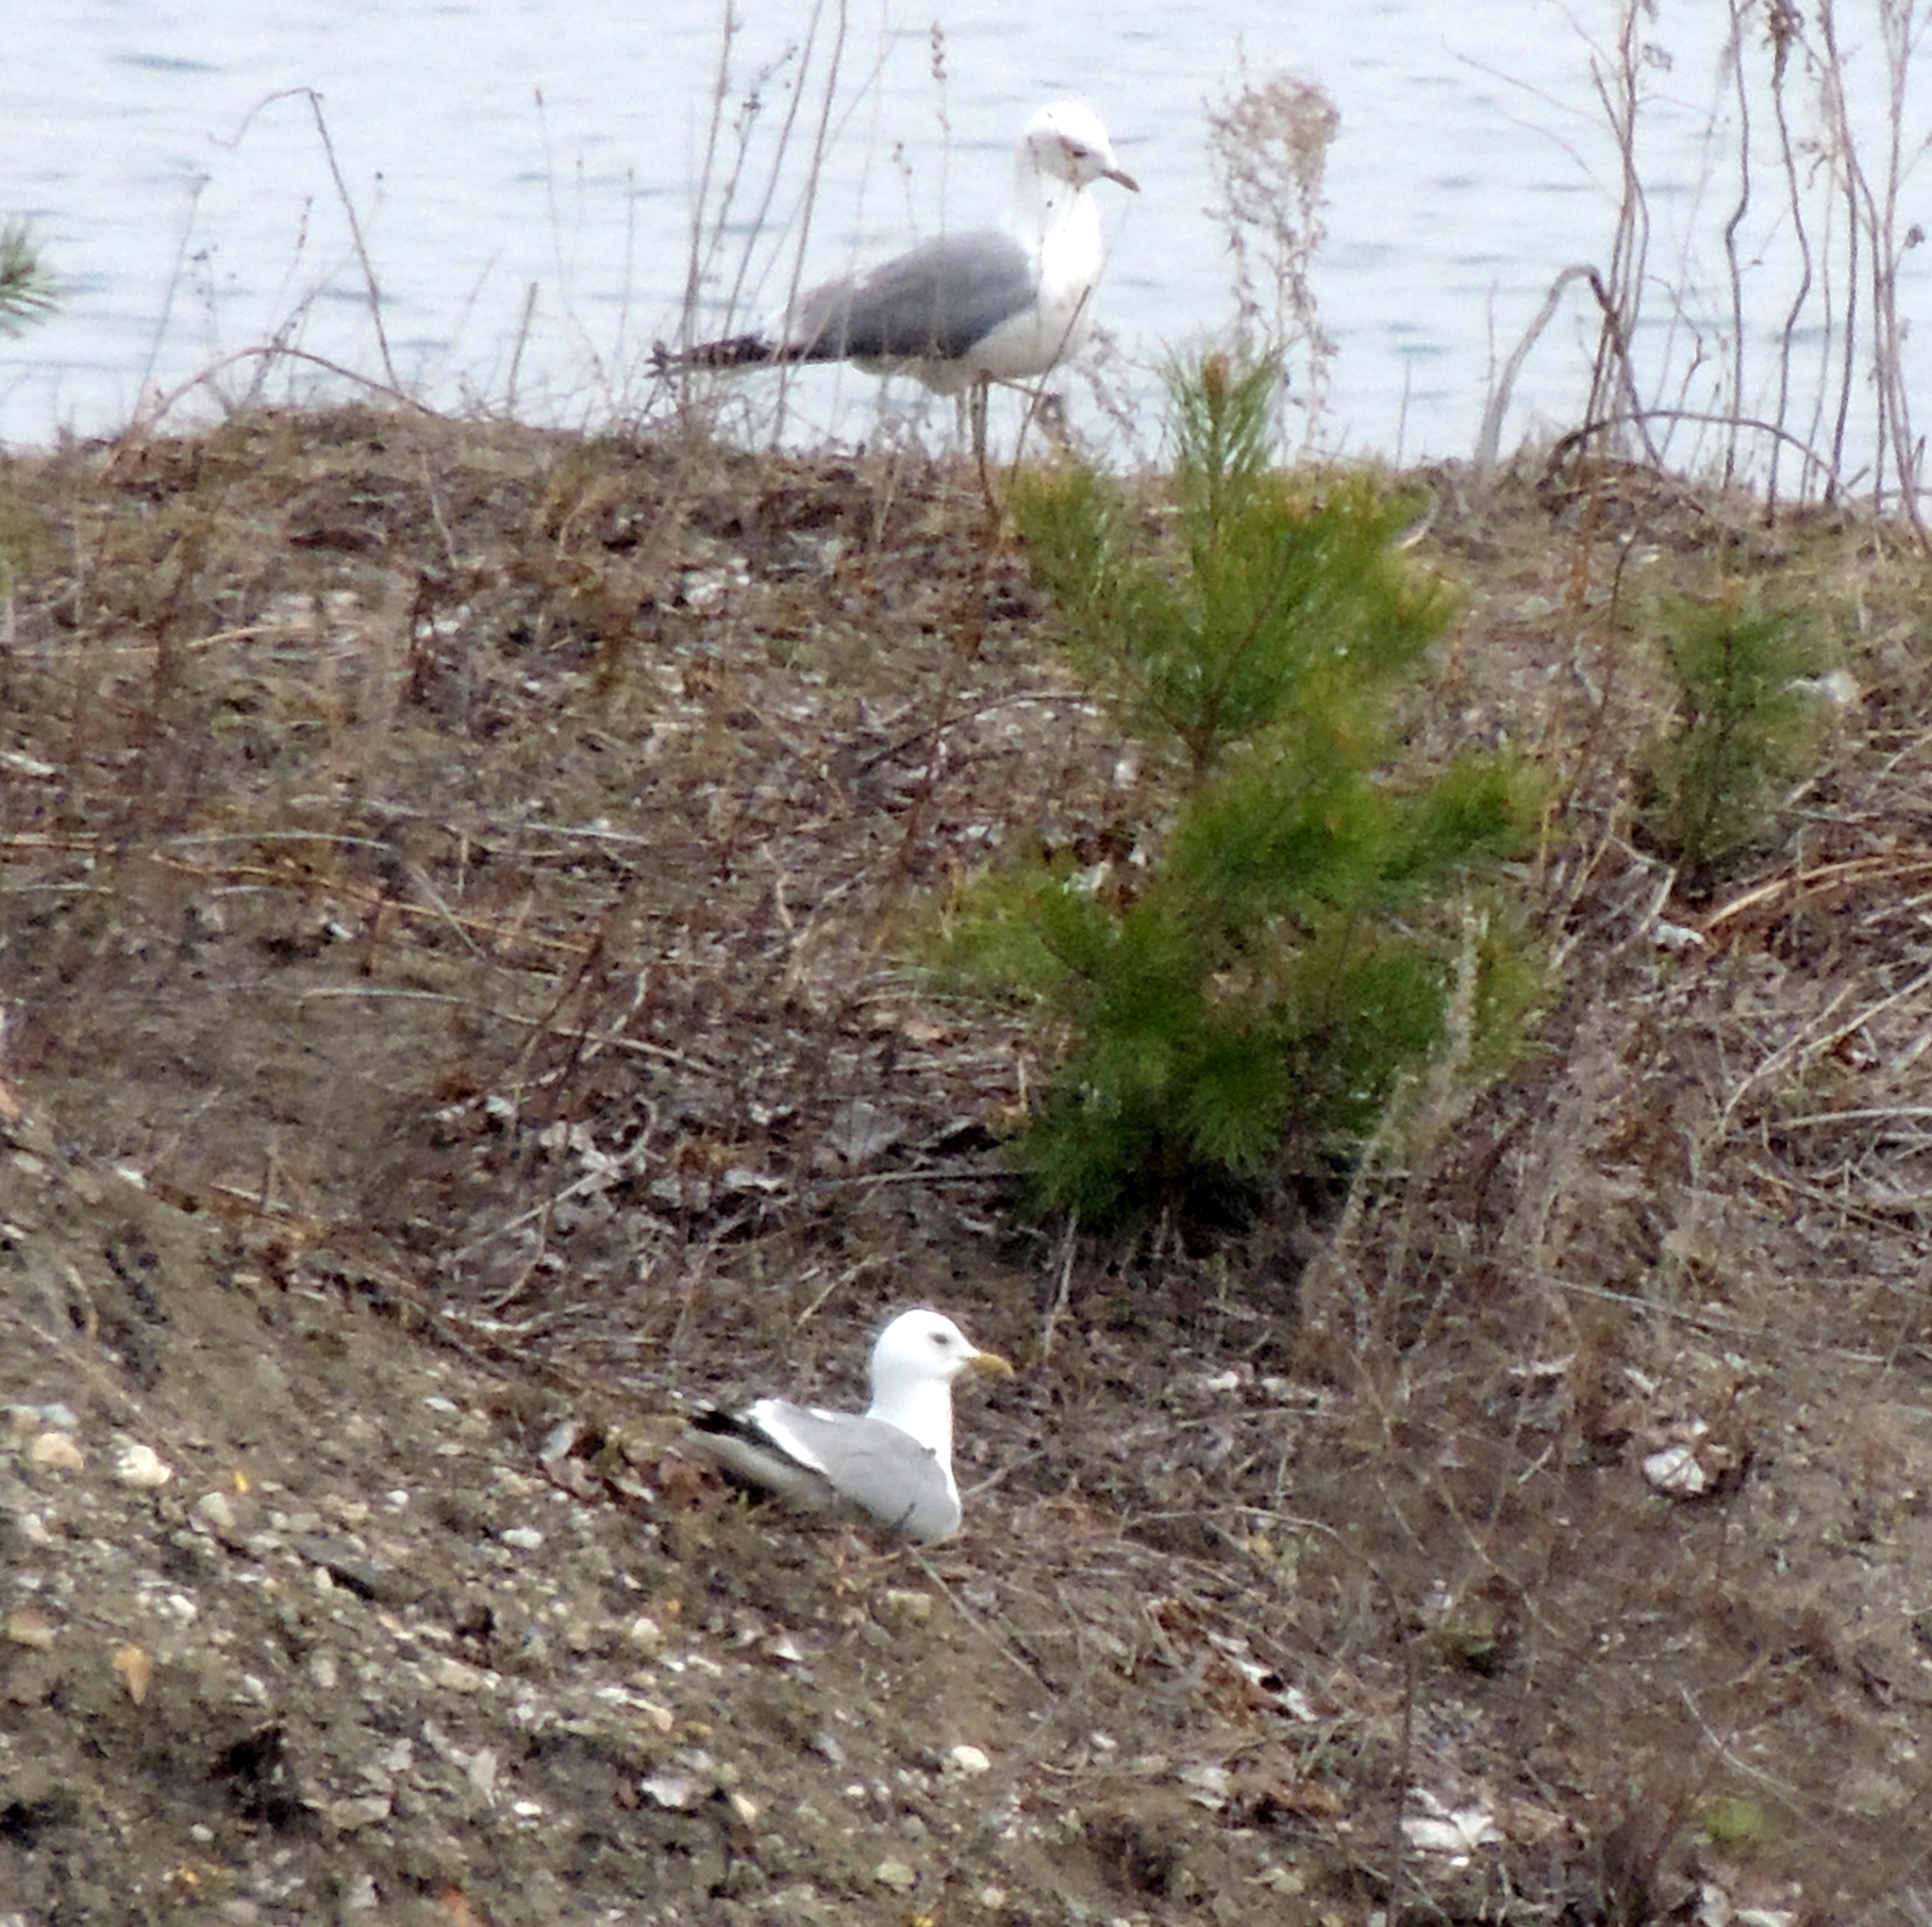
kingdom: Animalia
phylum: Chordata
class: Aves
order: Charadriiformes
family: Laridae
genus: Larus
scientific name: Larus canus
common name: Mew gull
